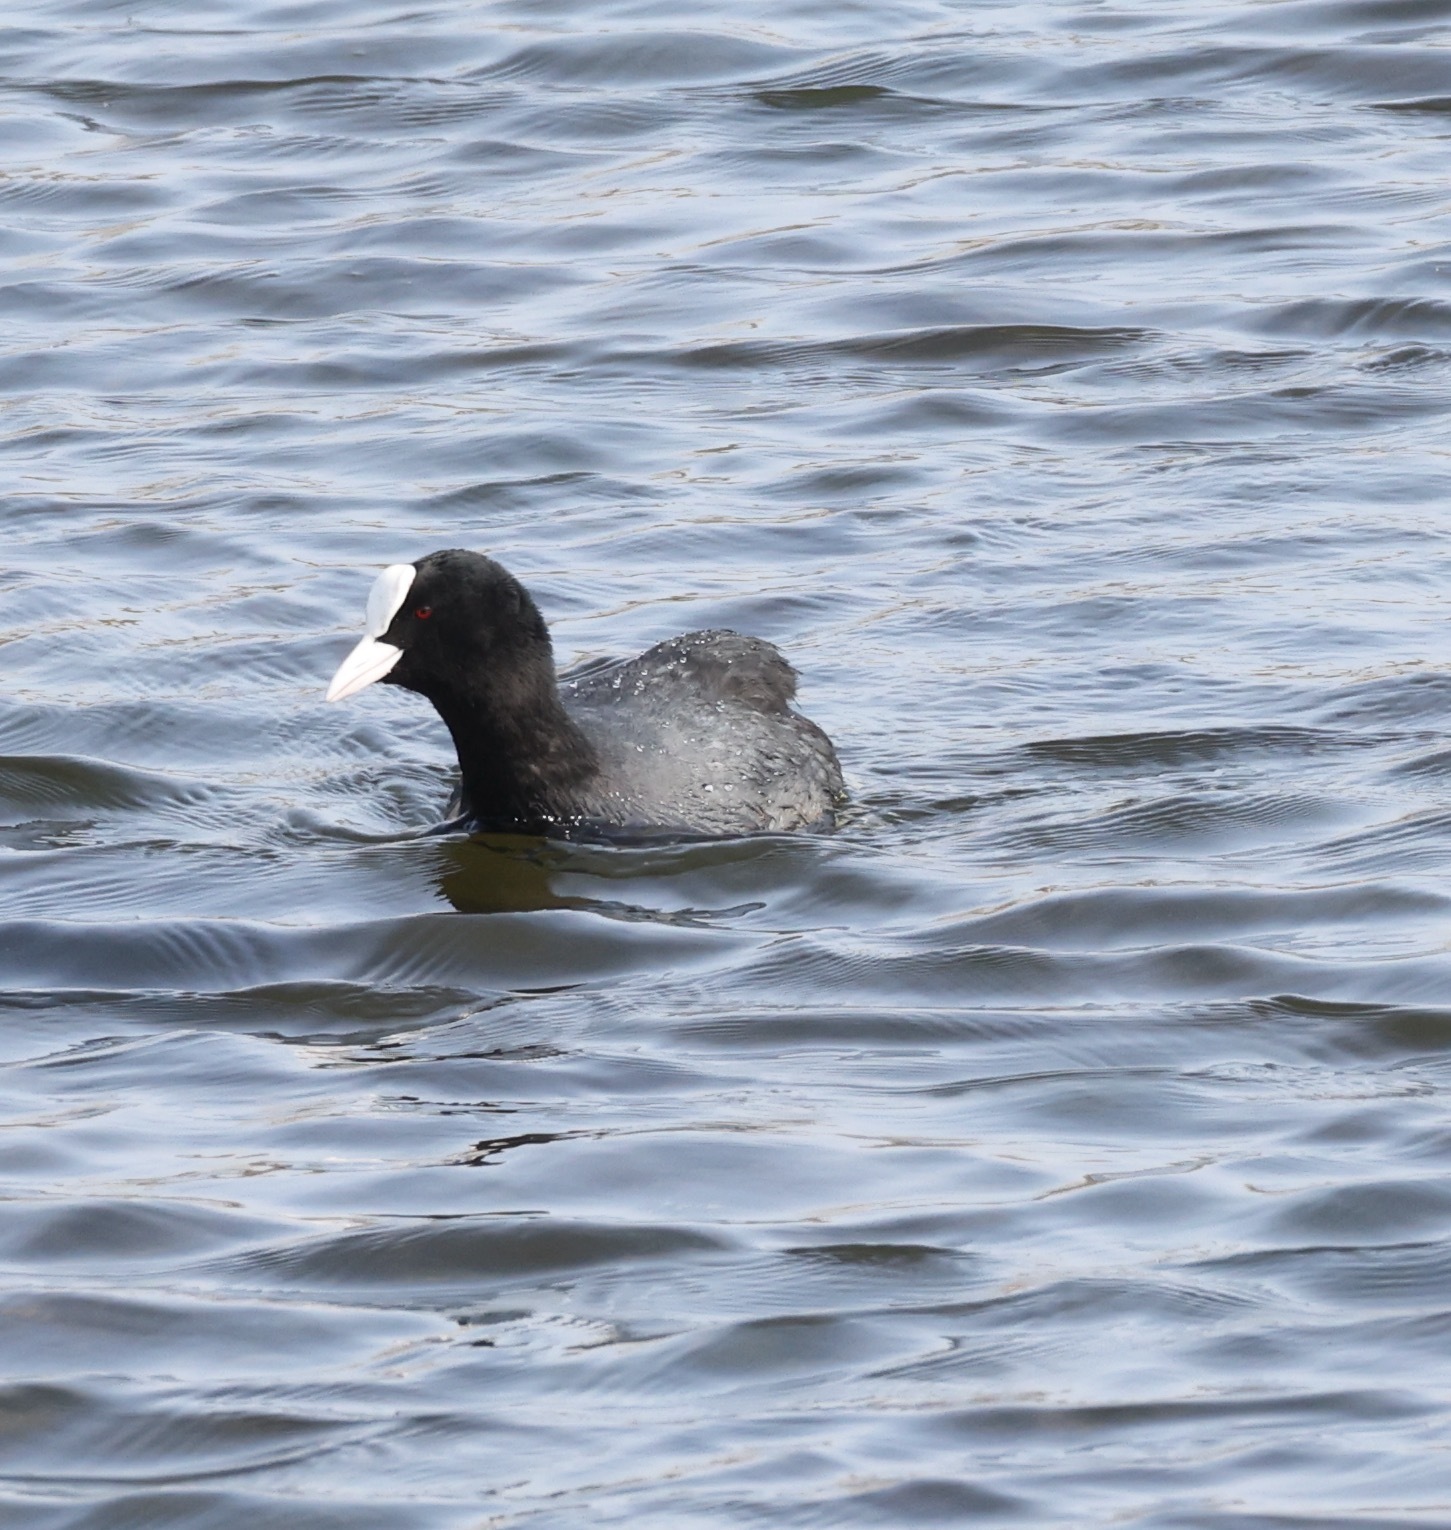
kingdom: Animalia
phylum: Chordata
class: Aves
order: Gruiformes
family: Rallidae
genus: Fulica
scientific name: Fulica atra
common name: Eurasian coot
